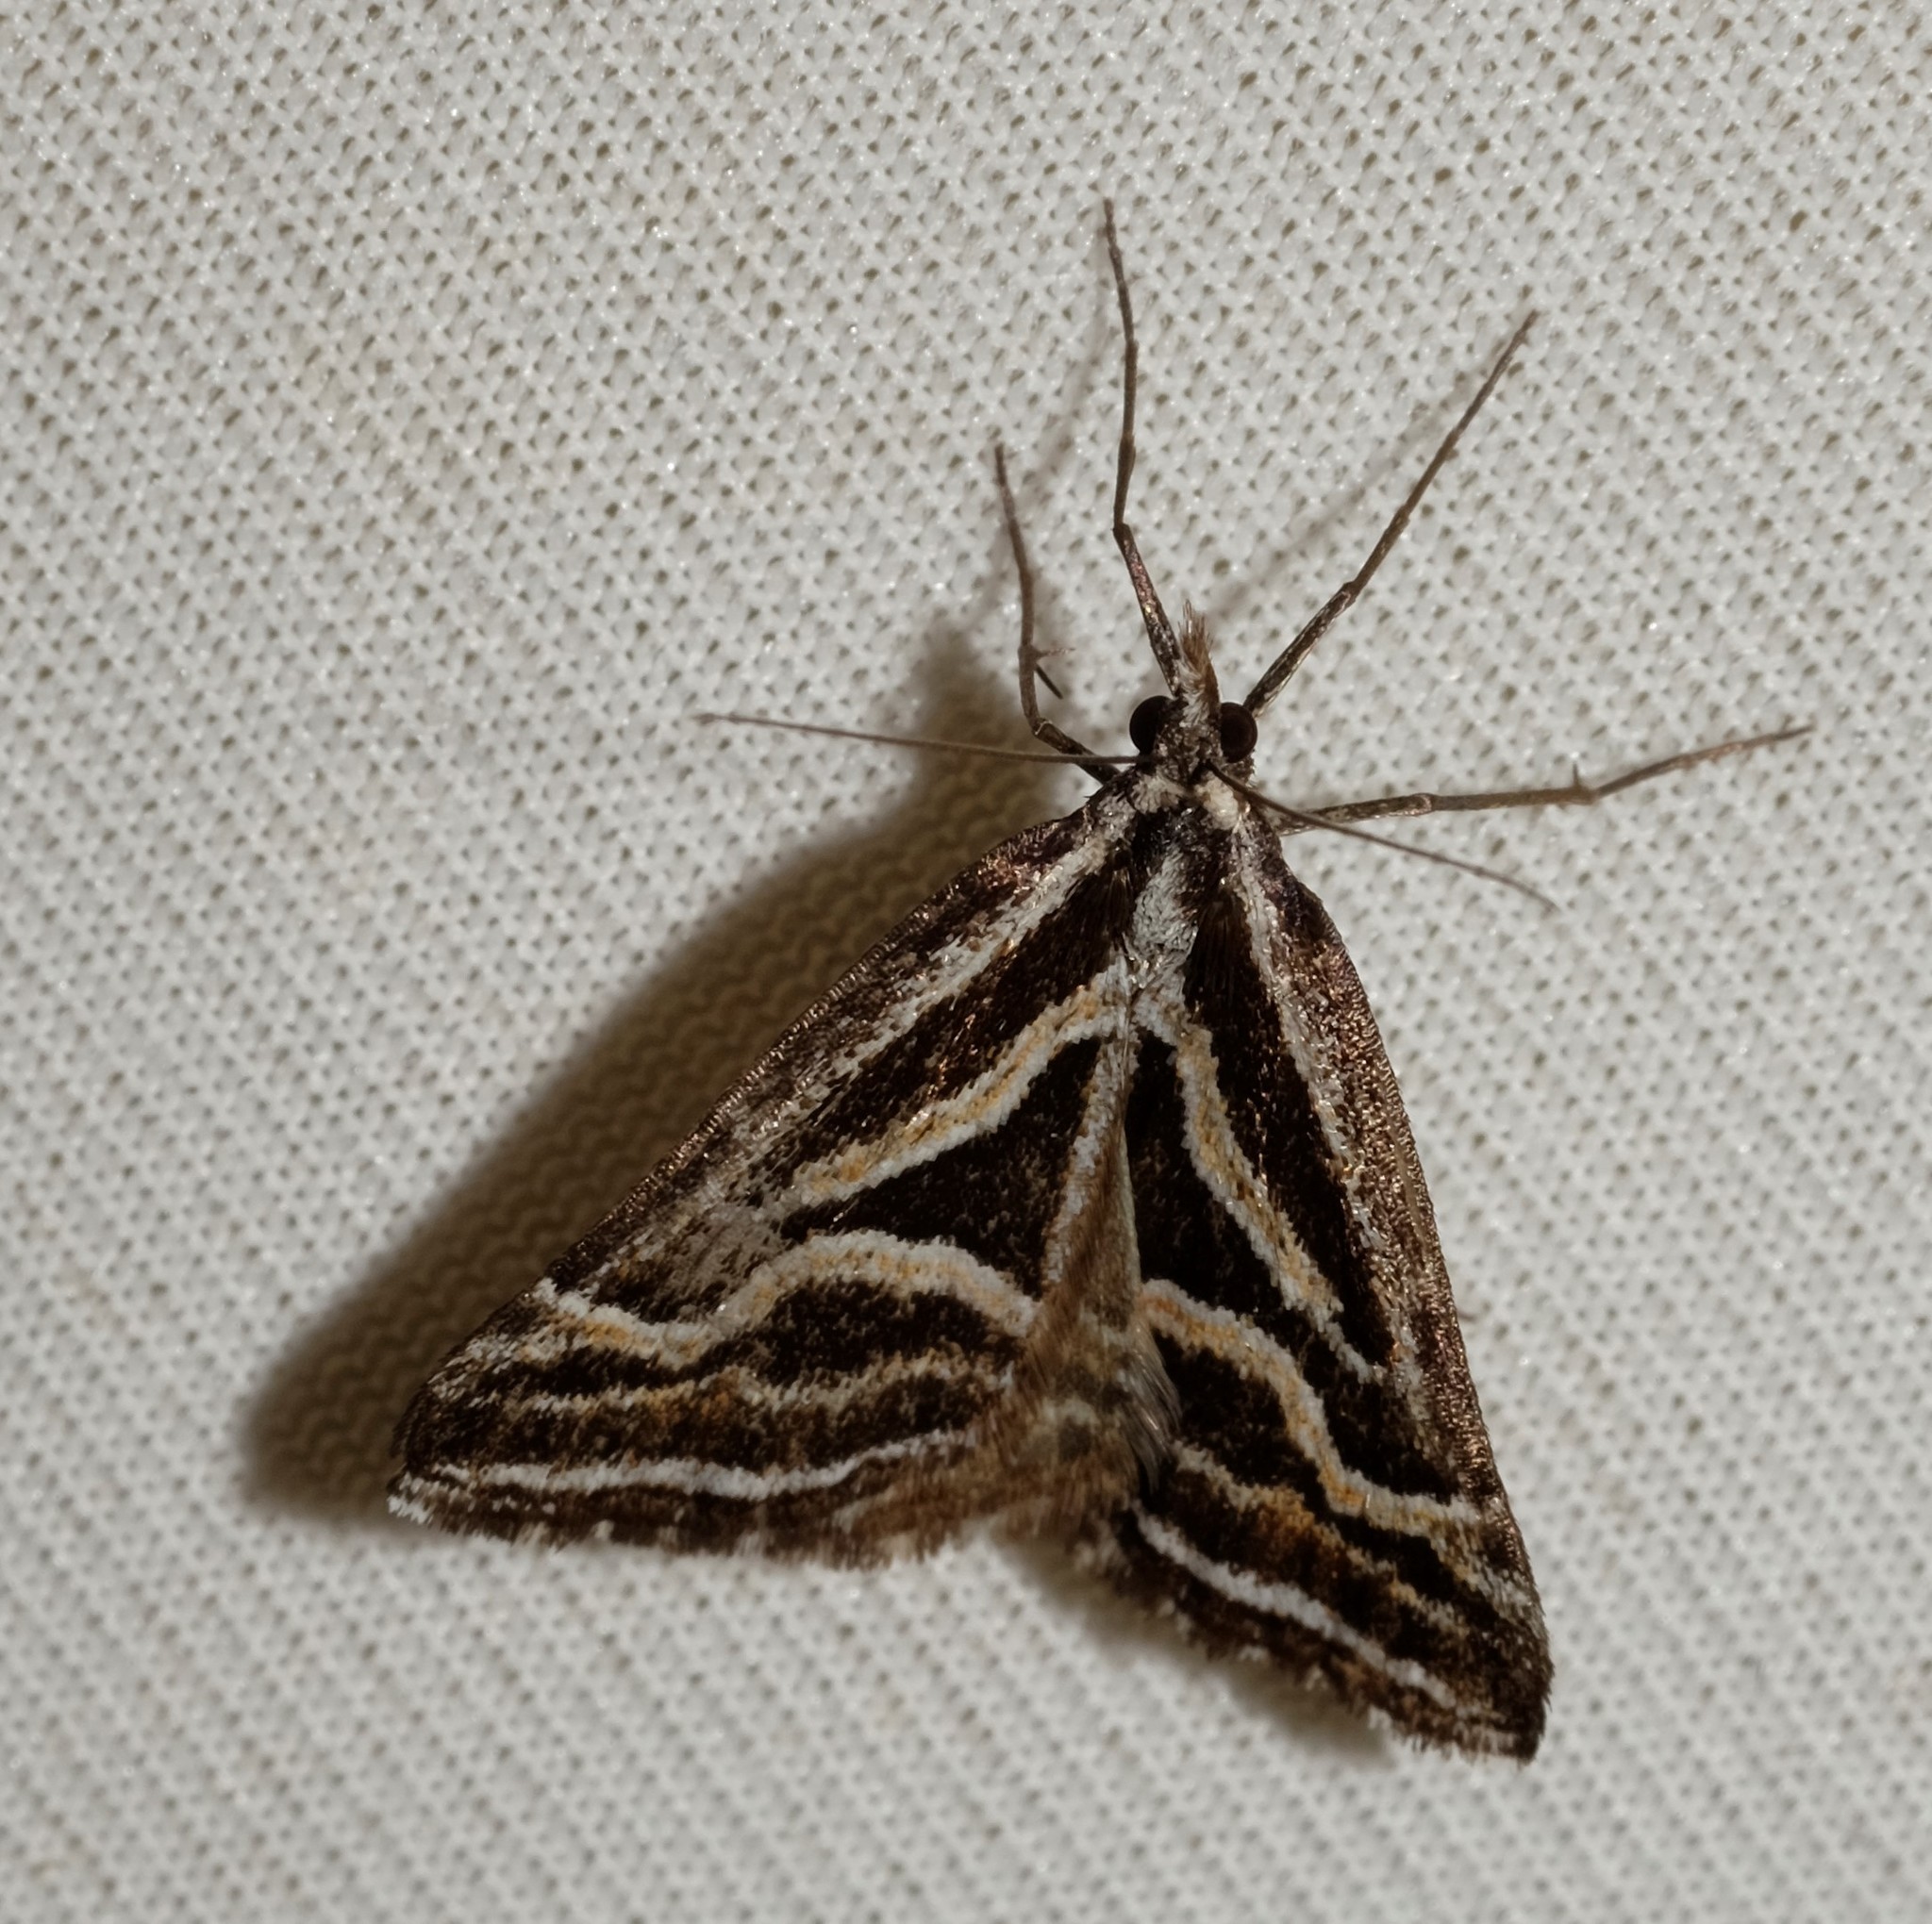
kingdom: Animalia
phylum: Arthropoda
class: Insecta
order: Lepidoptera
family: Geometridae
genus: Dichromodes
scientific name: Dichromodes confluaria
